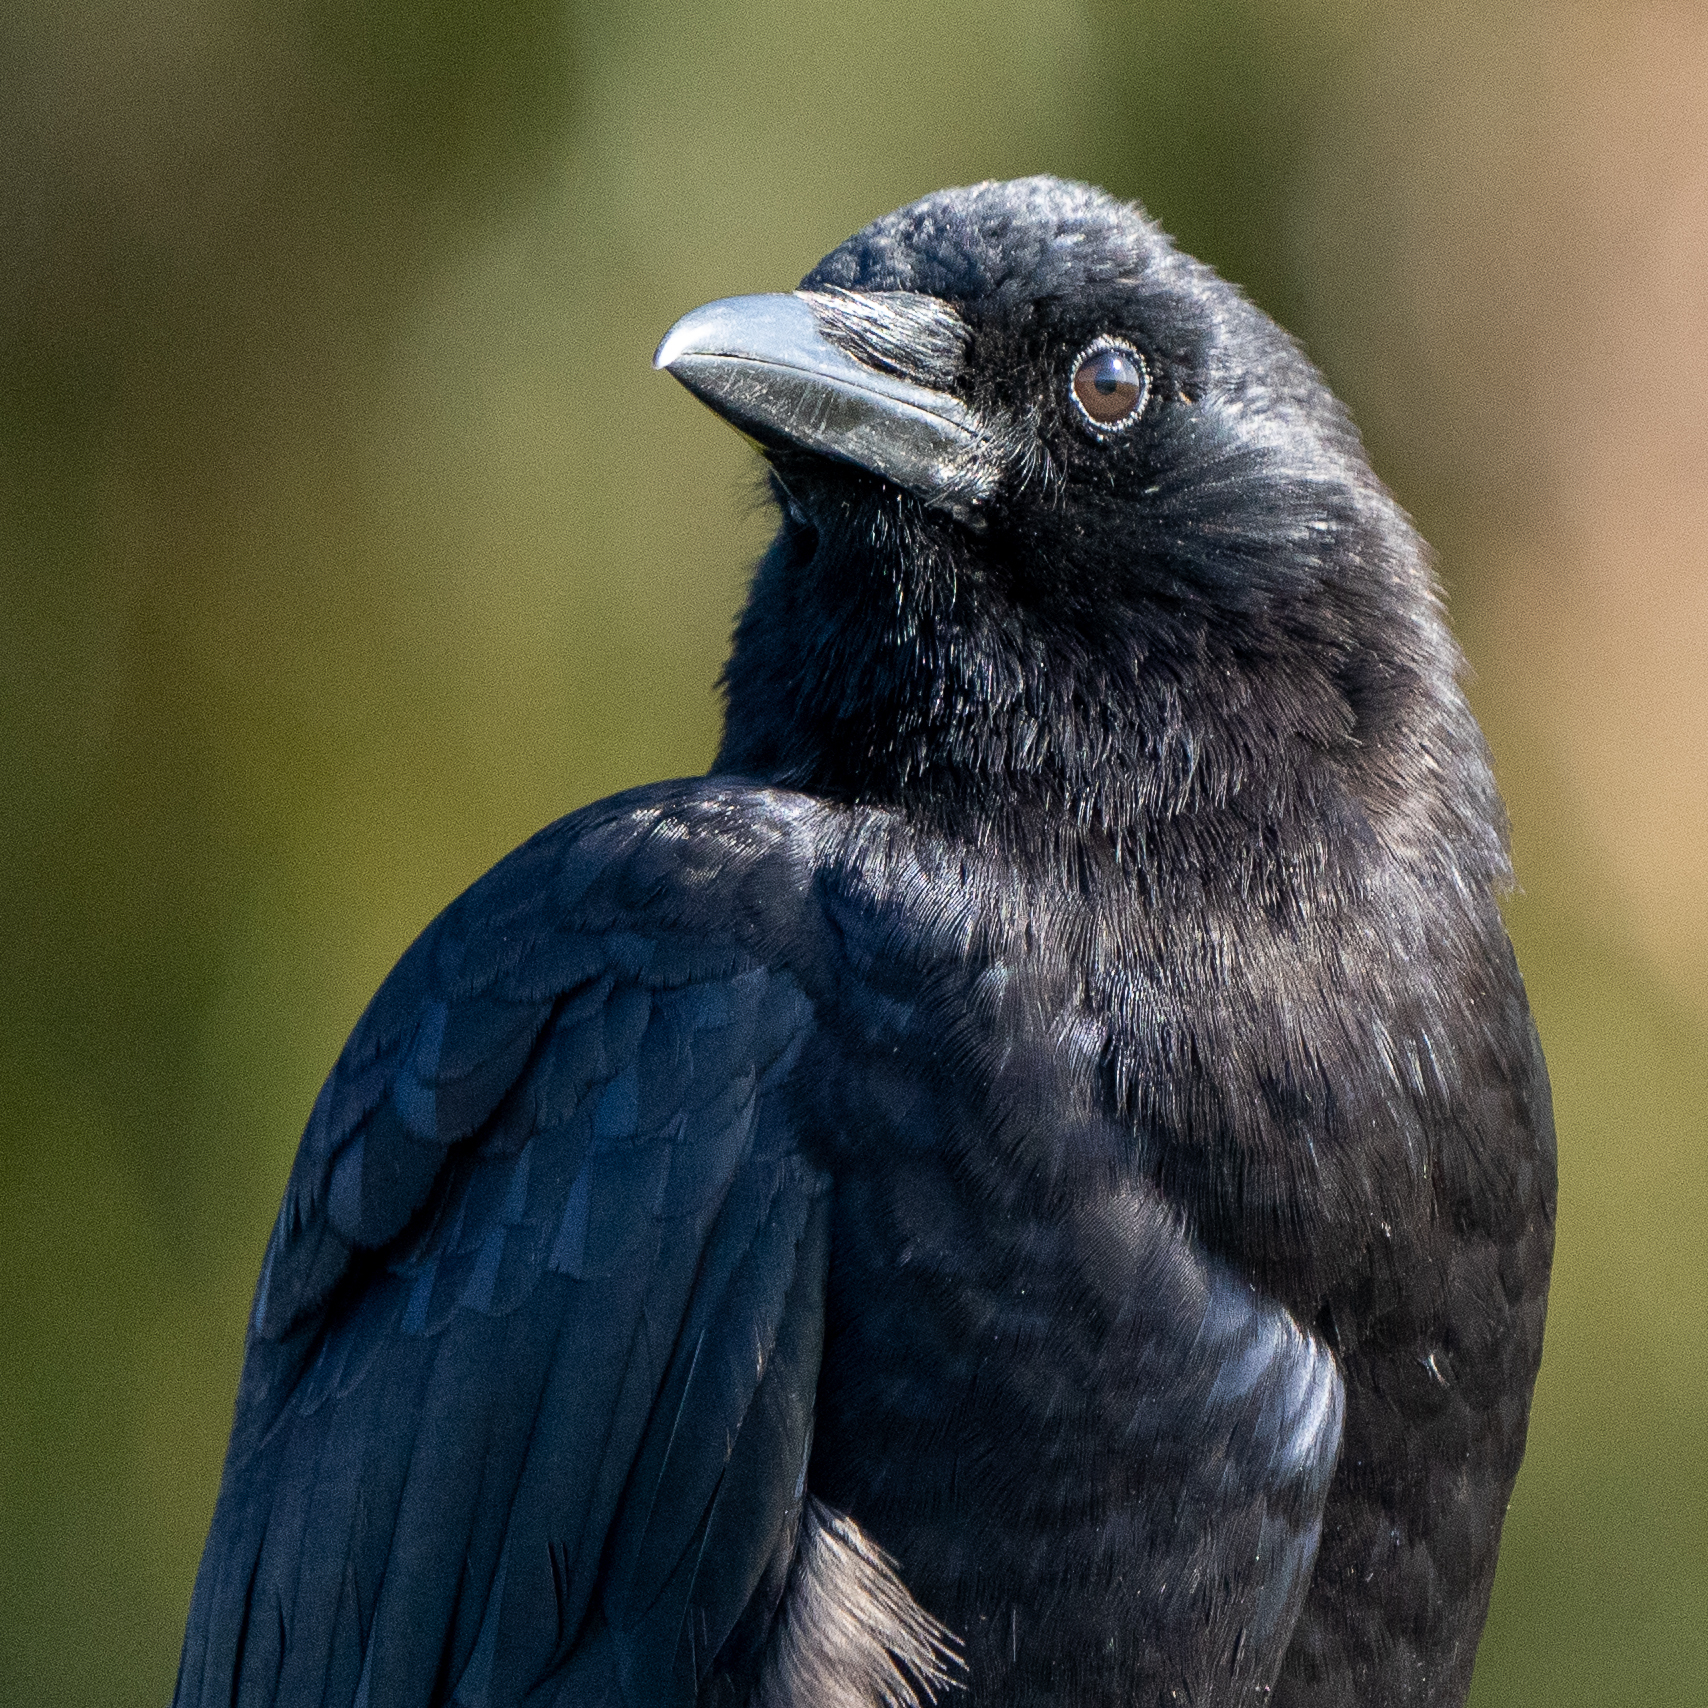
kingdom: Animalia
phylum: Chordata
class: Aves
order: Passeriformes
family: Corvidae
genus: Corvus
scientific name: Corvus brachyrhynchos
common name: American crow
